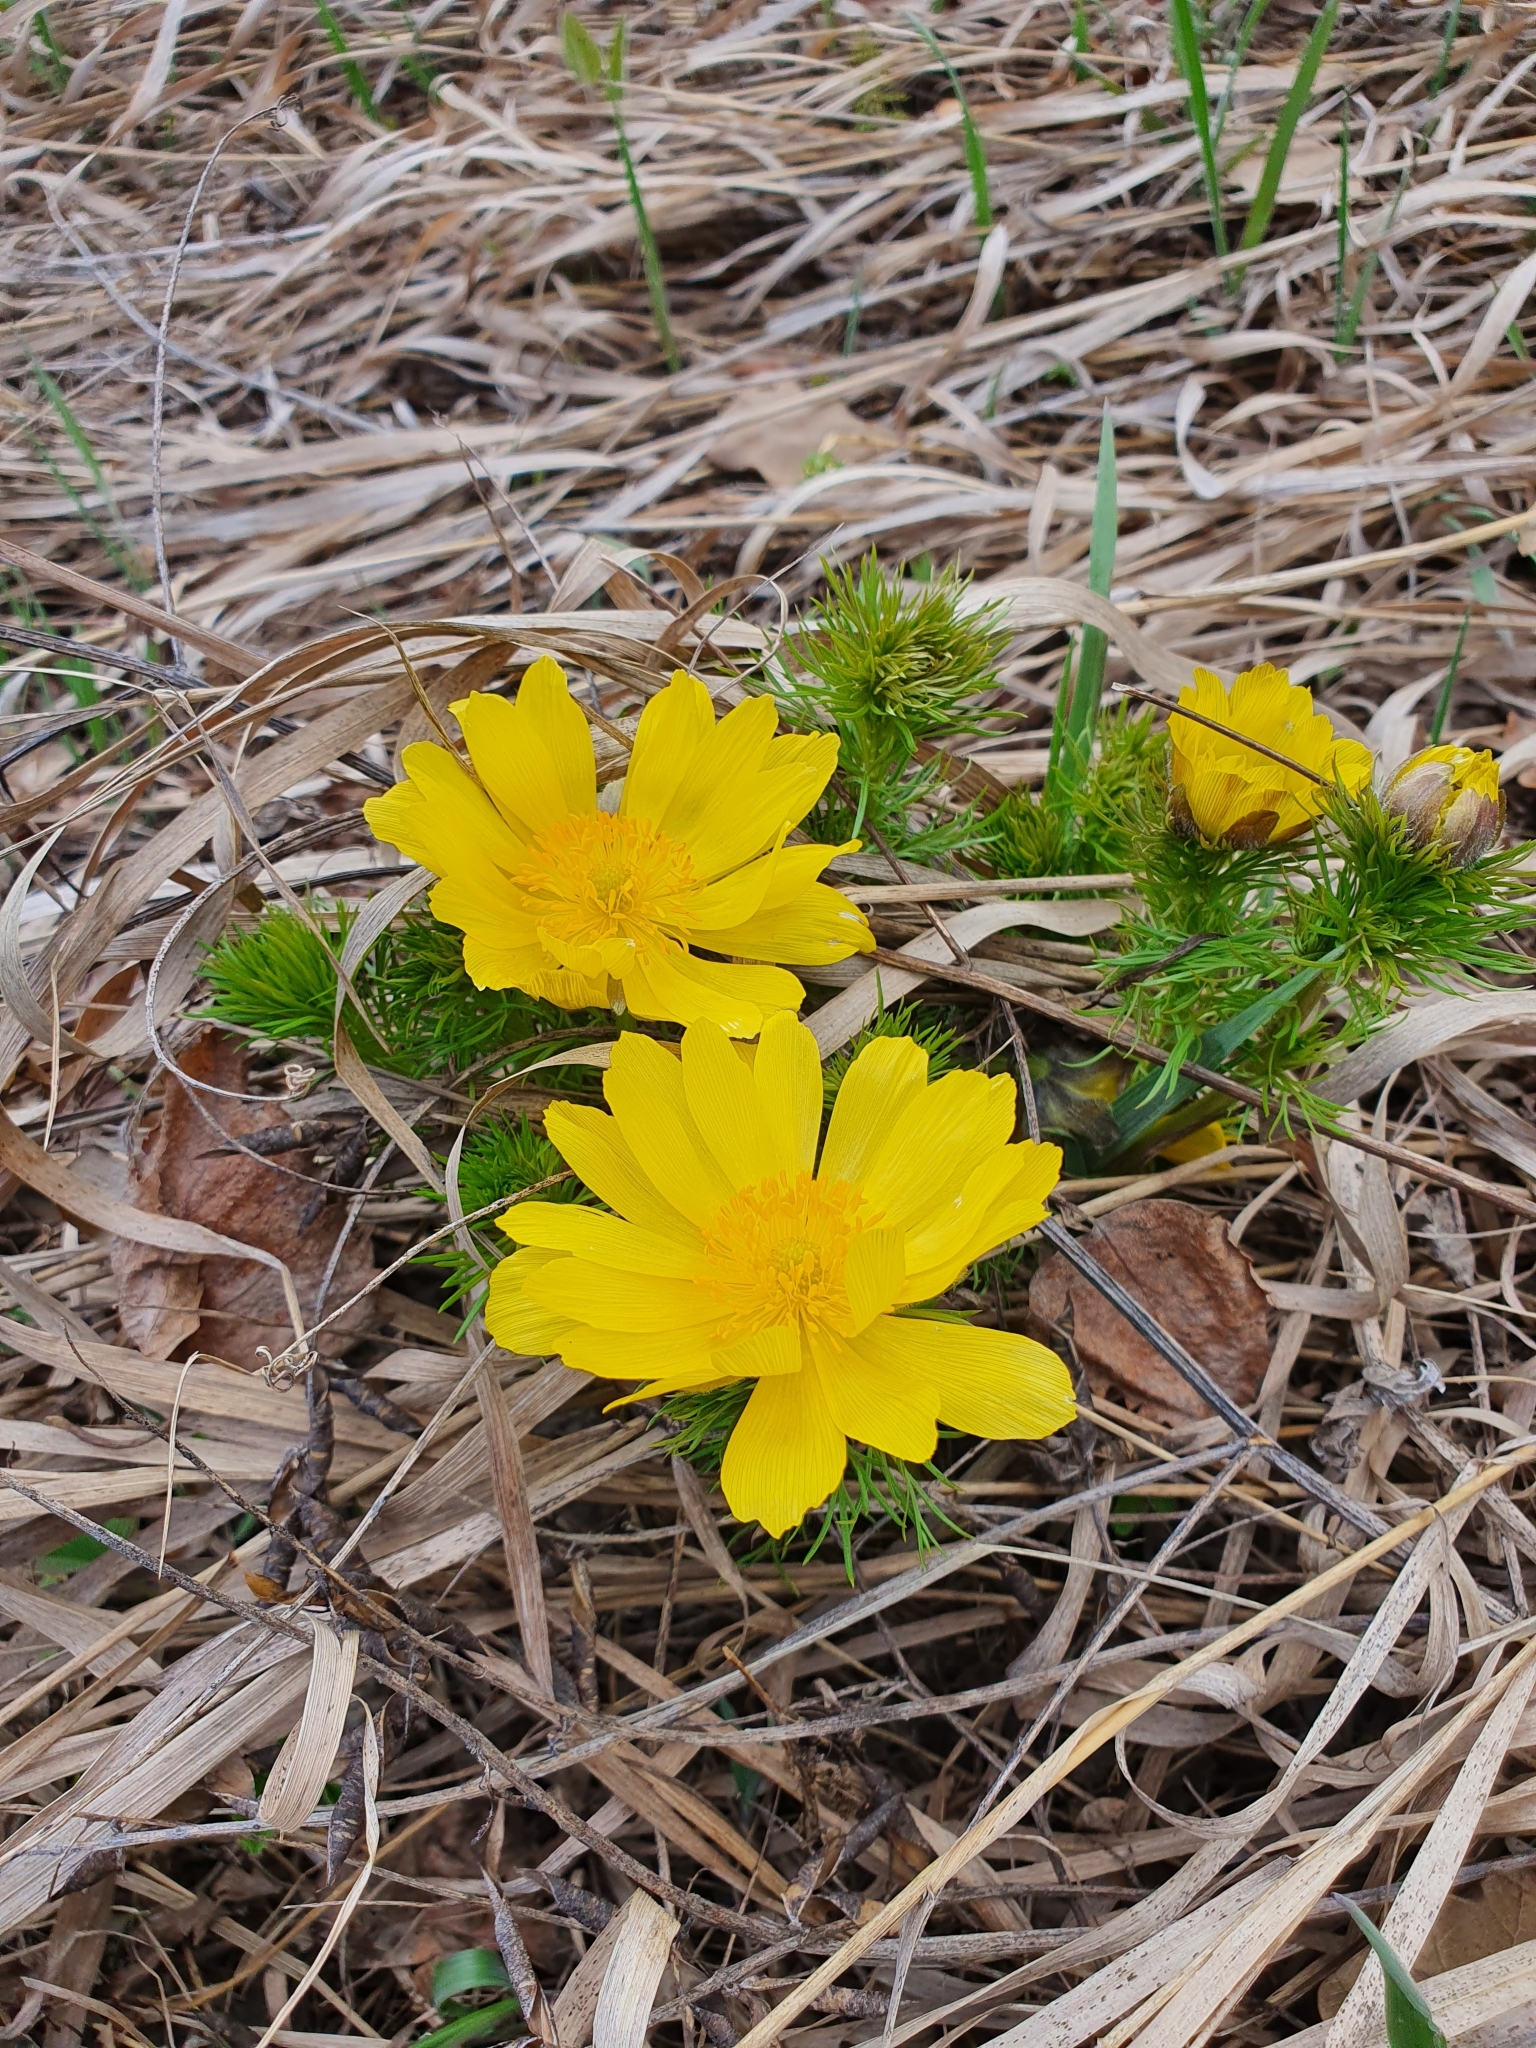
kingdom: Plantae
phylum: Tracheophyta
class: Magnoliopsida
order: Ranunculales
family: Ranunculaceae
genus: Adonis
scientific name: Adonis vernalis
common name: Yellow pheasants-eye
